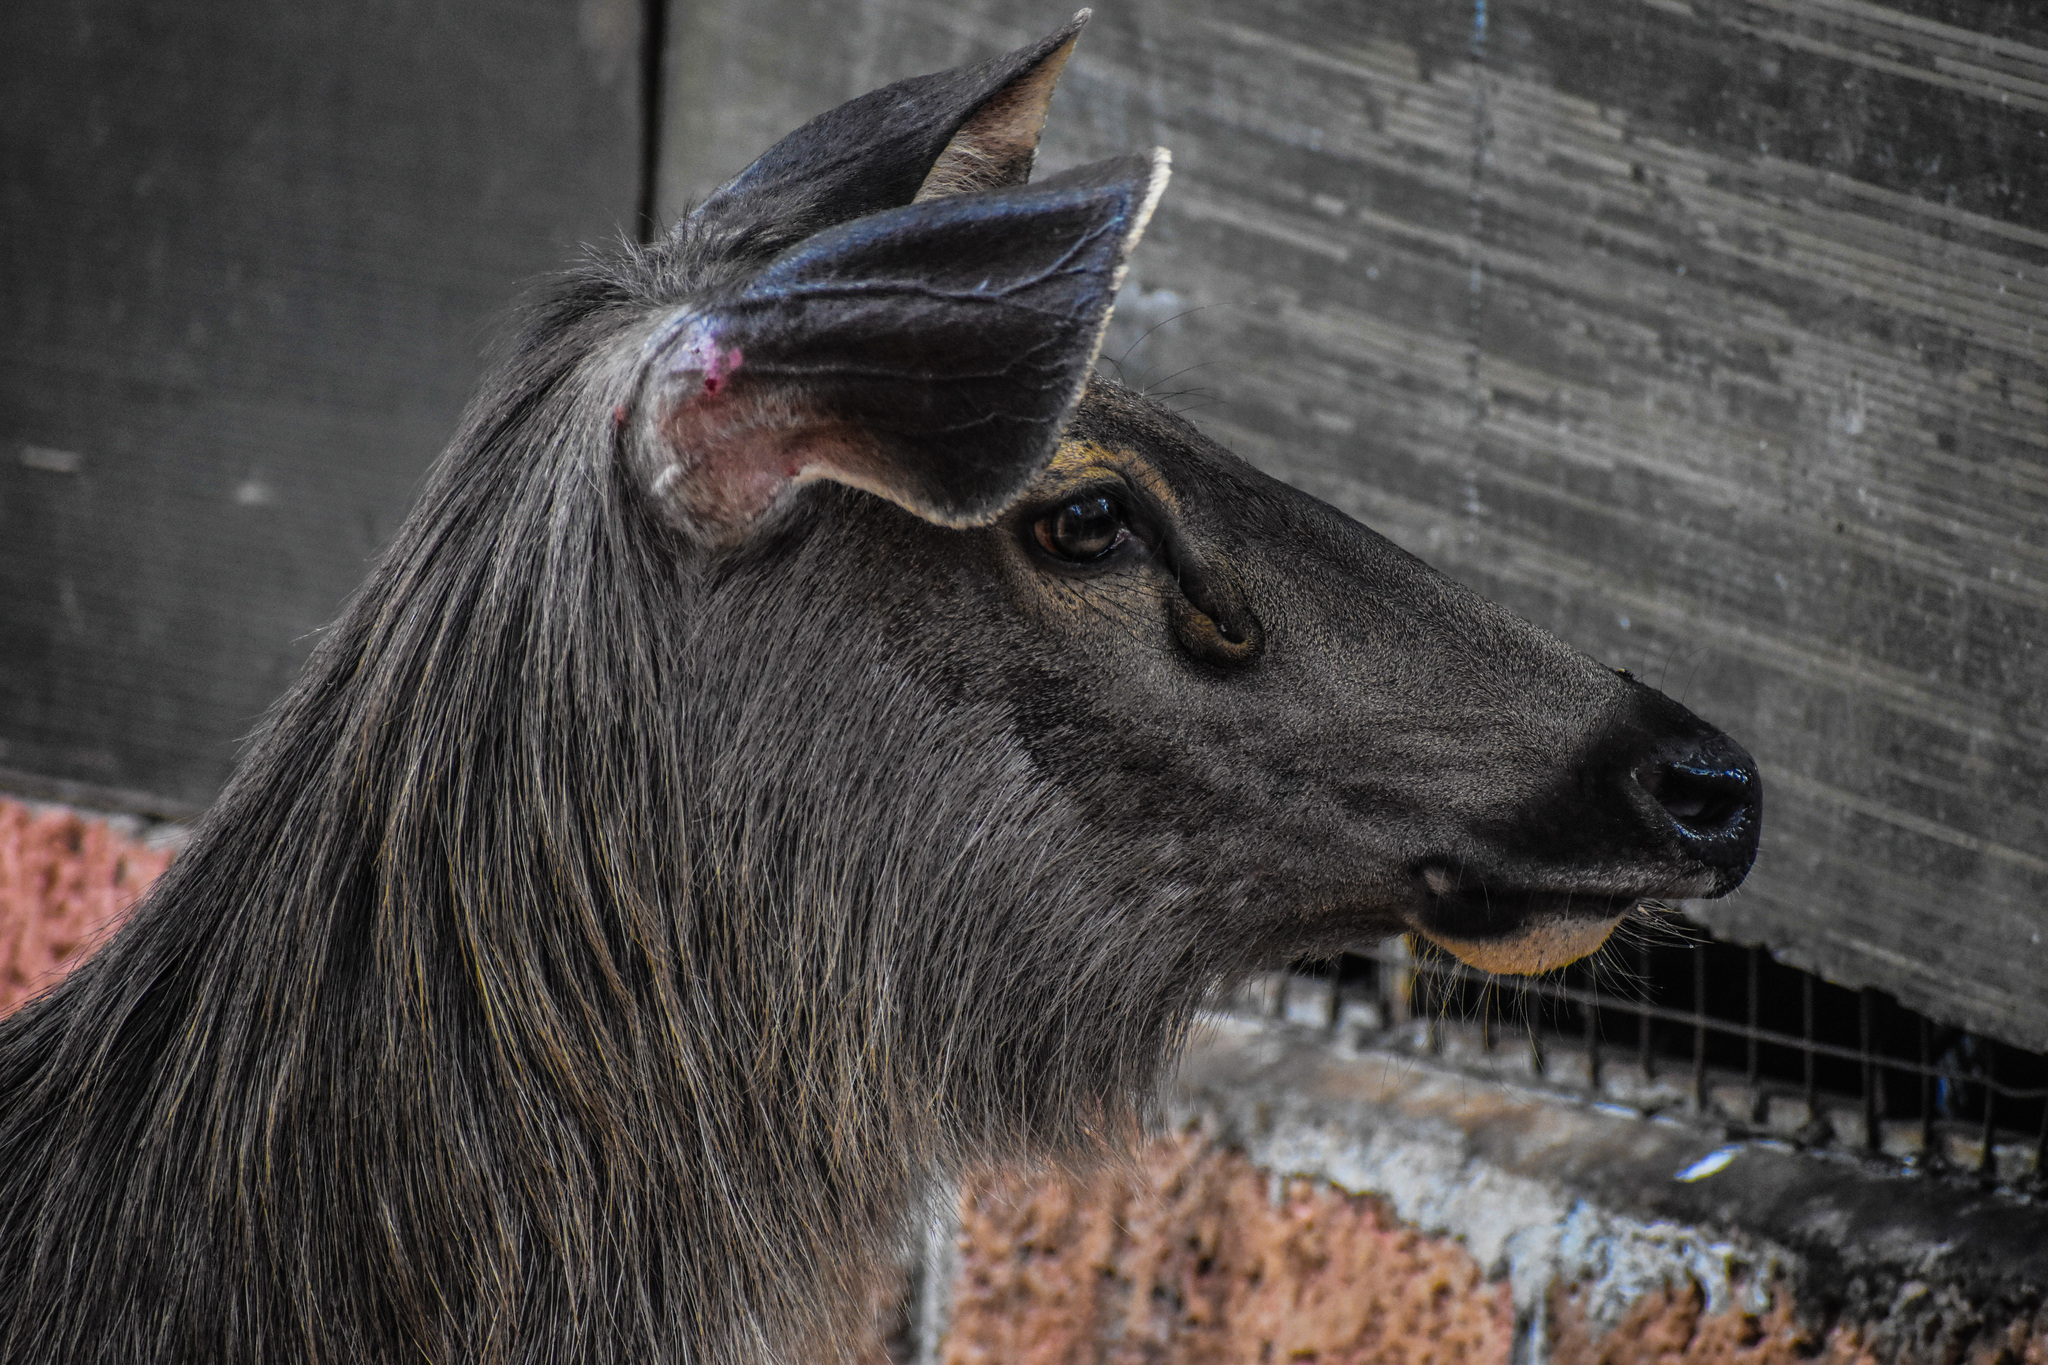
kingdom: Animalia
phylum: Chordata
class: Mammalia
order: Artiodactyla
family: Cervidae
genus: Rusa
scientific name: Rusa unicolor
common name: Sambar
